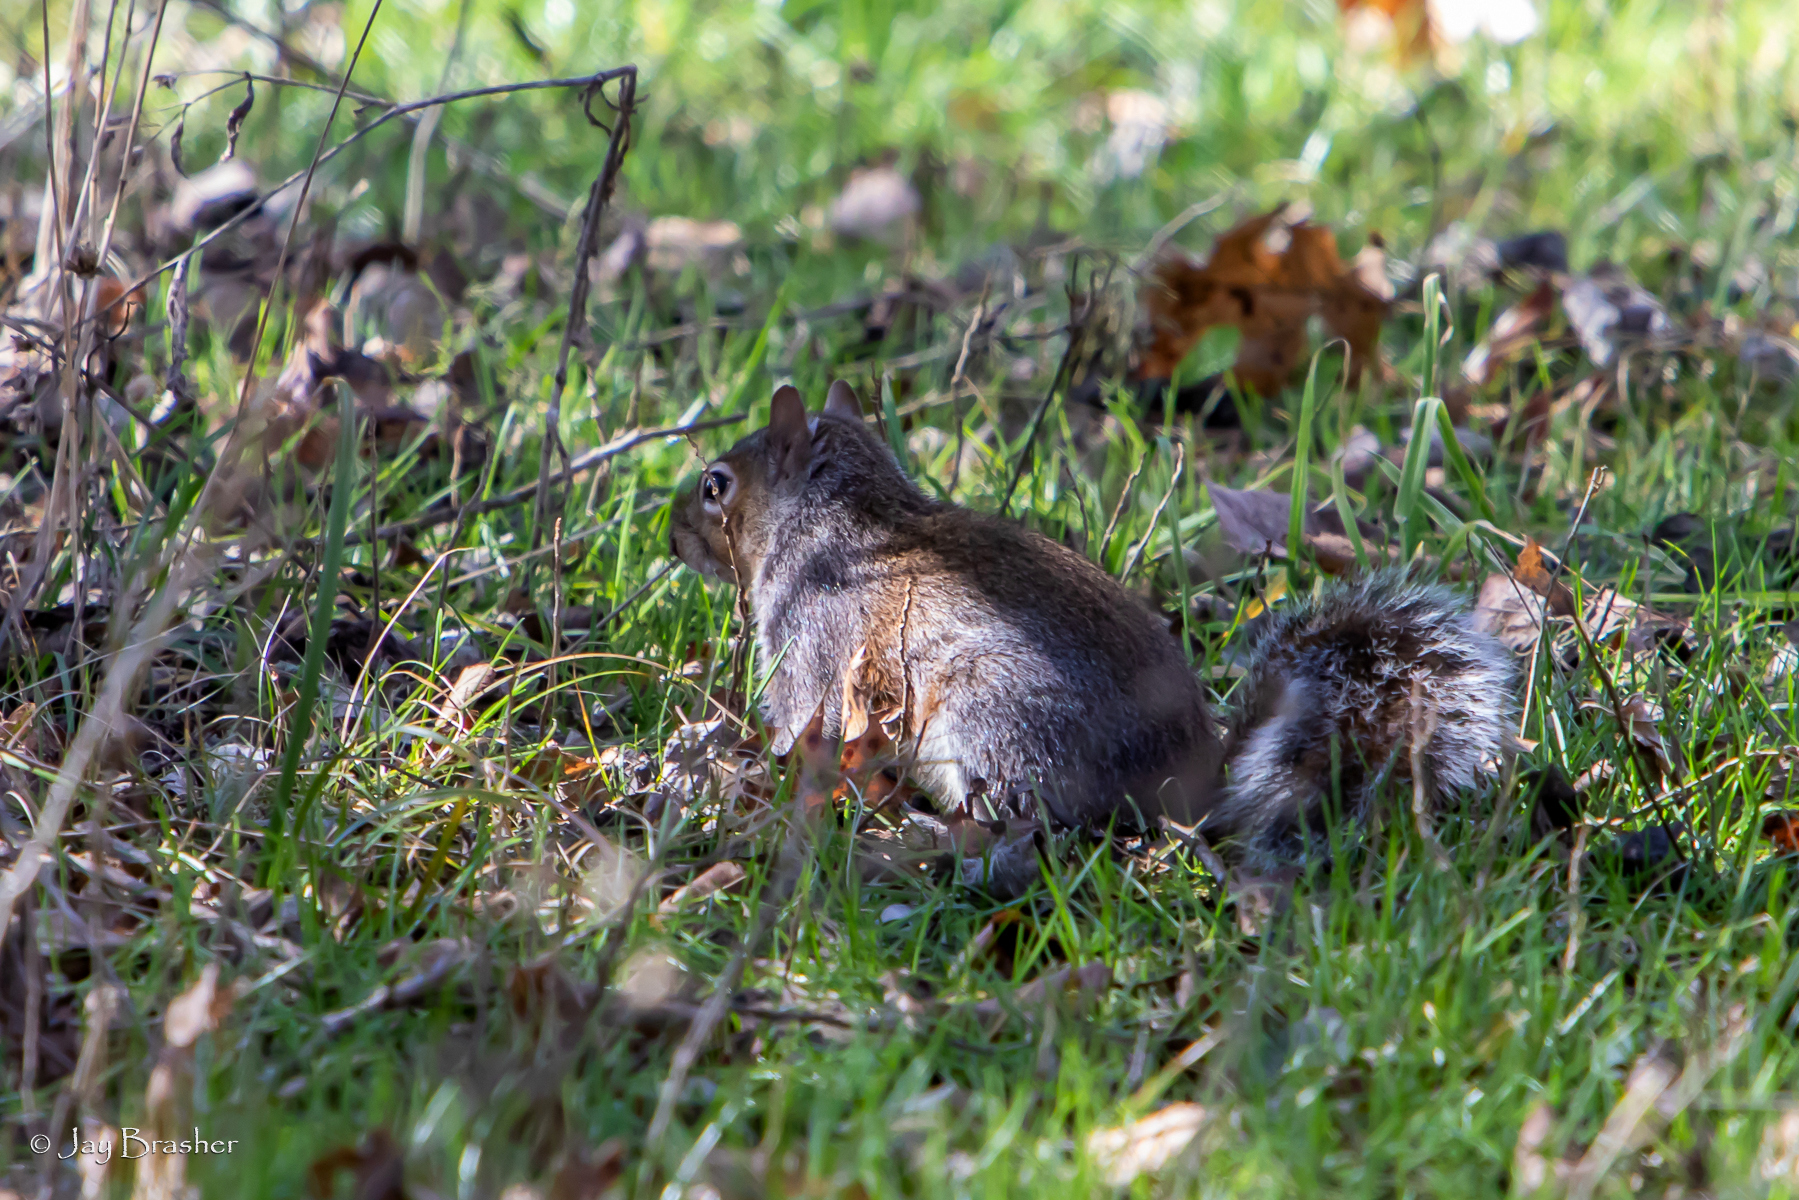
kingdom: Animalia
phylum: Chordata
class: Mammalia
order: Rodentia
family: Sciuridae
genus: Sciurus
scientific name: Sciurus carolinensis
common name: Eastern gray squirrel
